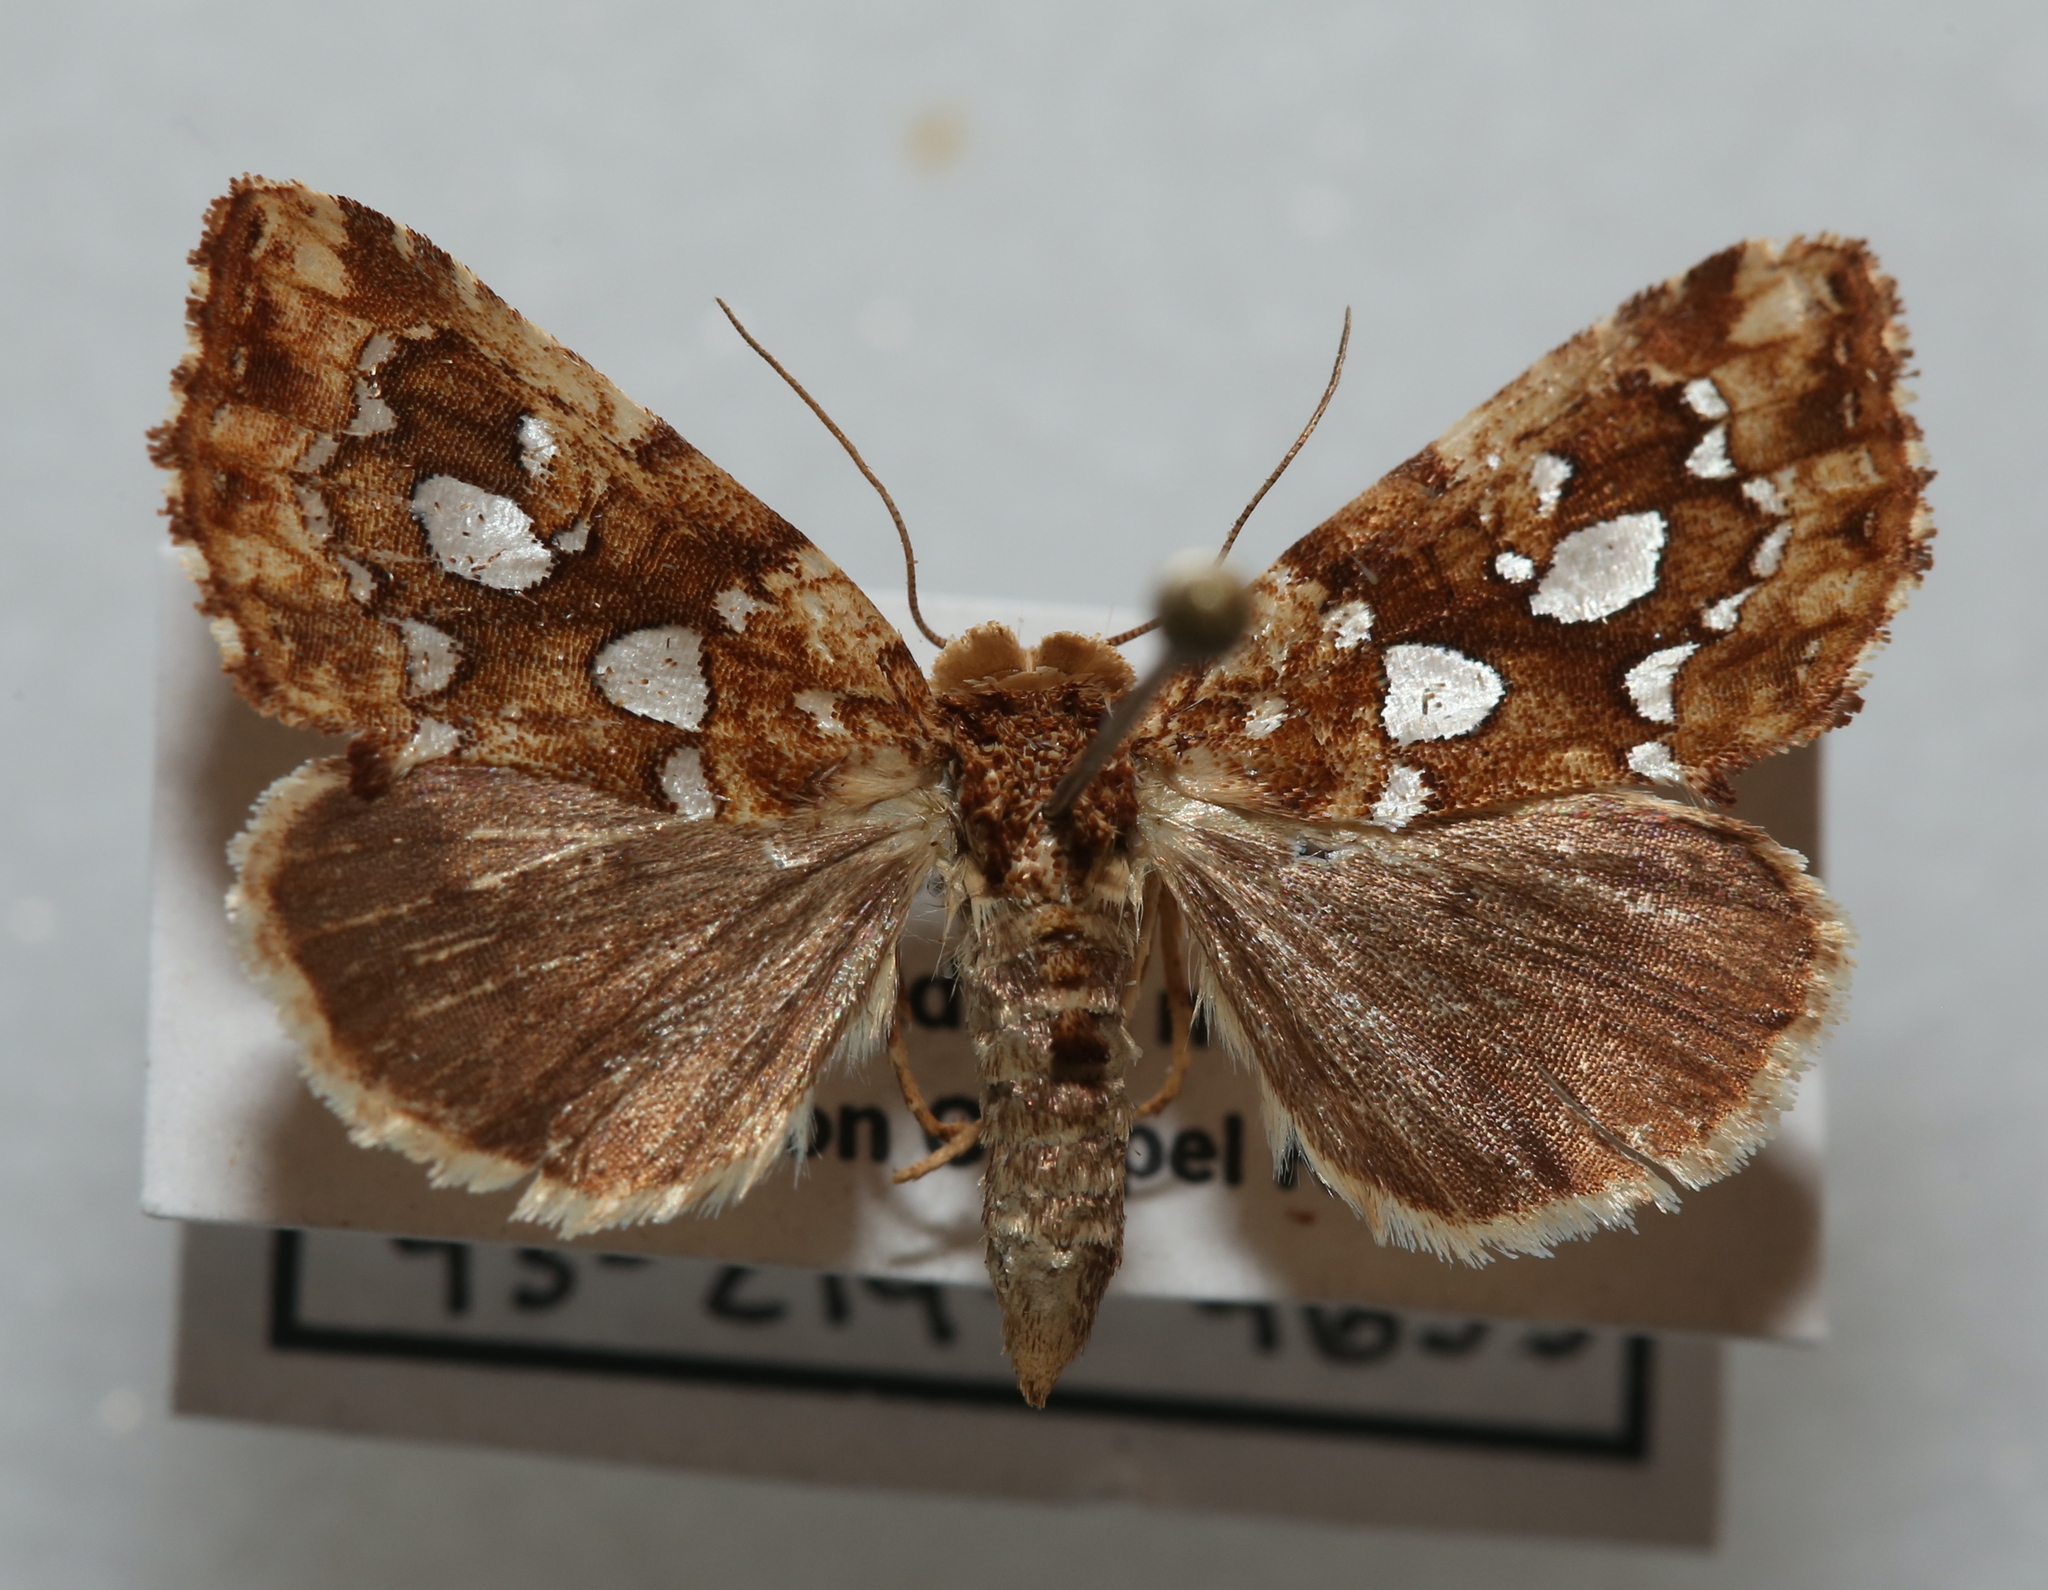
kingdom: Animalia
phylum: Arthropoda
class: Insecta
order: Lepidoptera
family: Noctuidae
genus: Callopistria
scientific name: Callopistria cordata
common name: Silver-spotted fern moth
